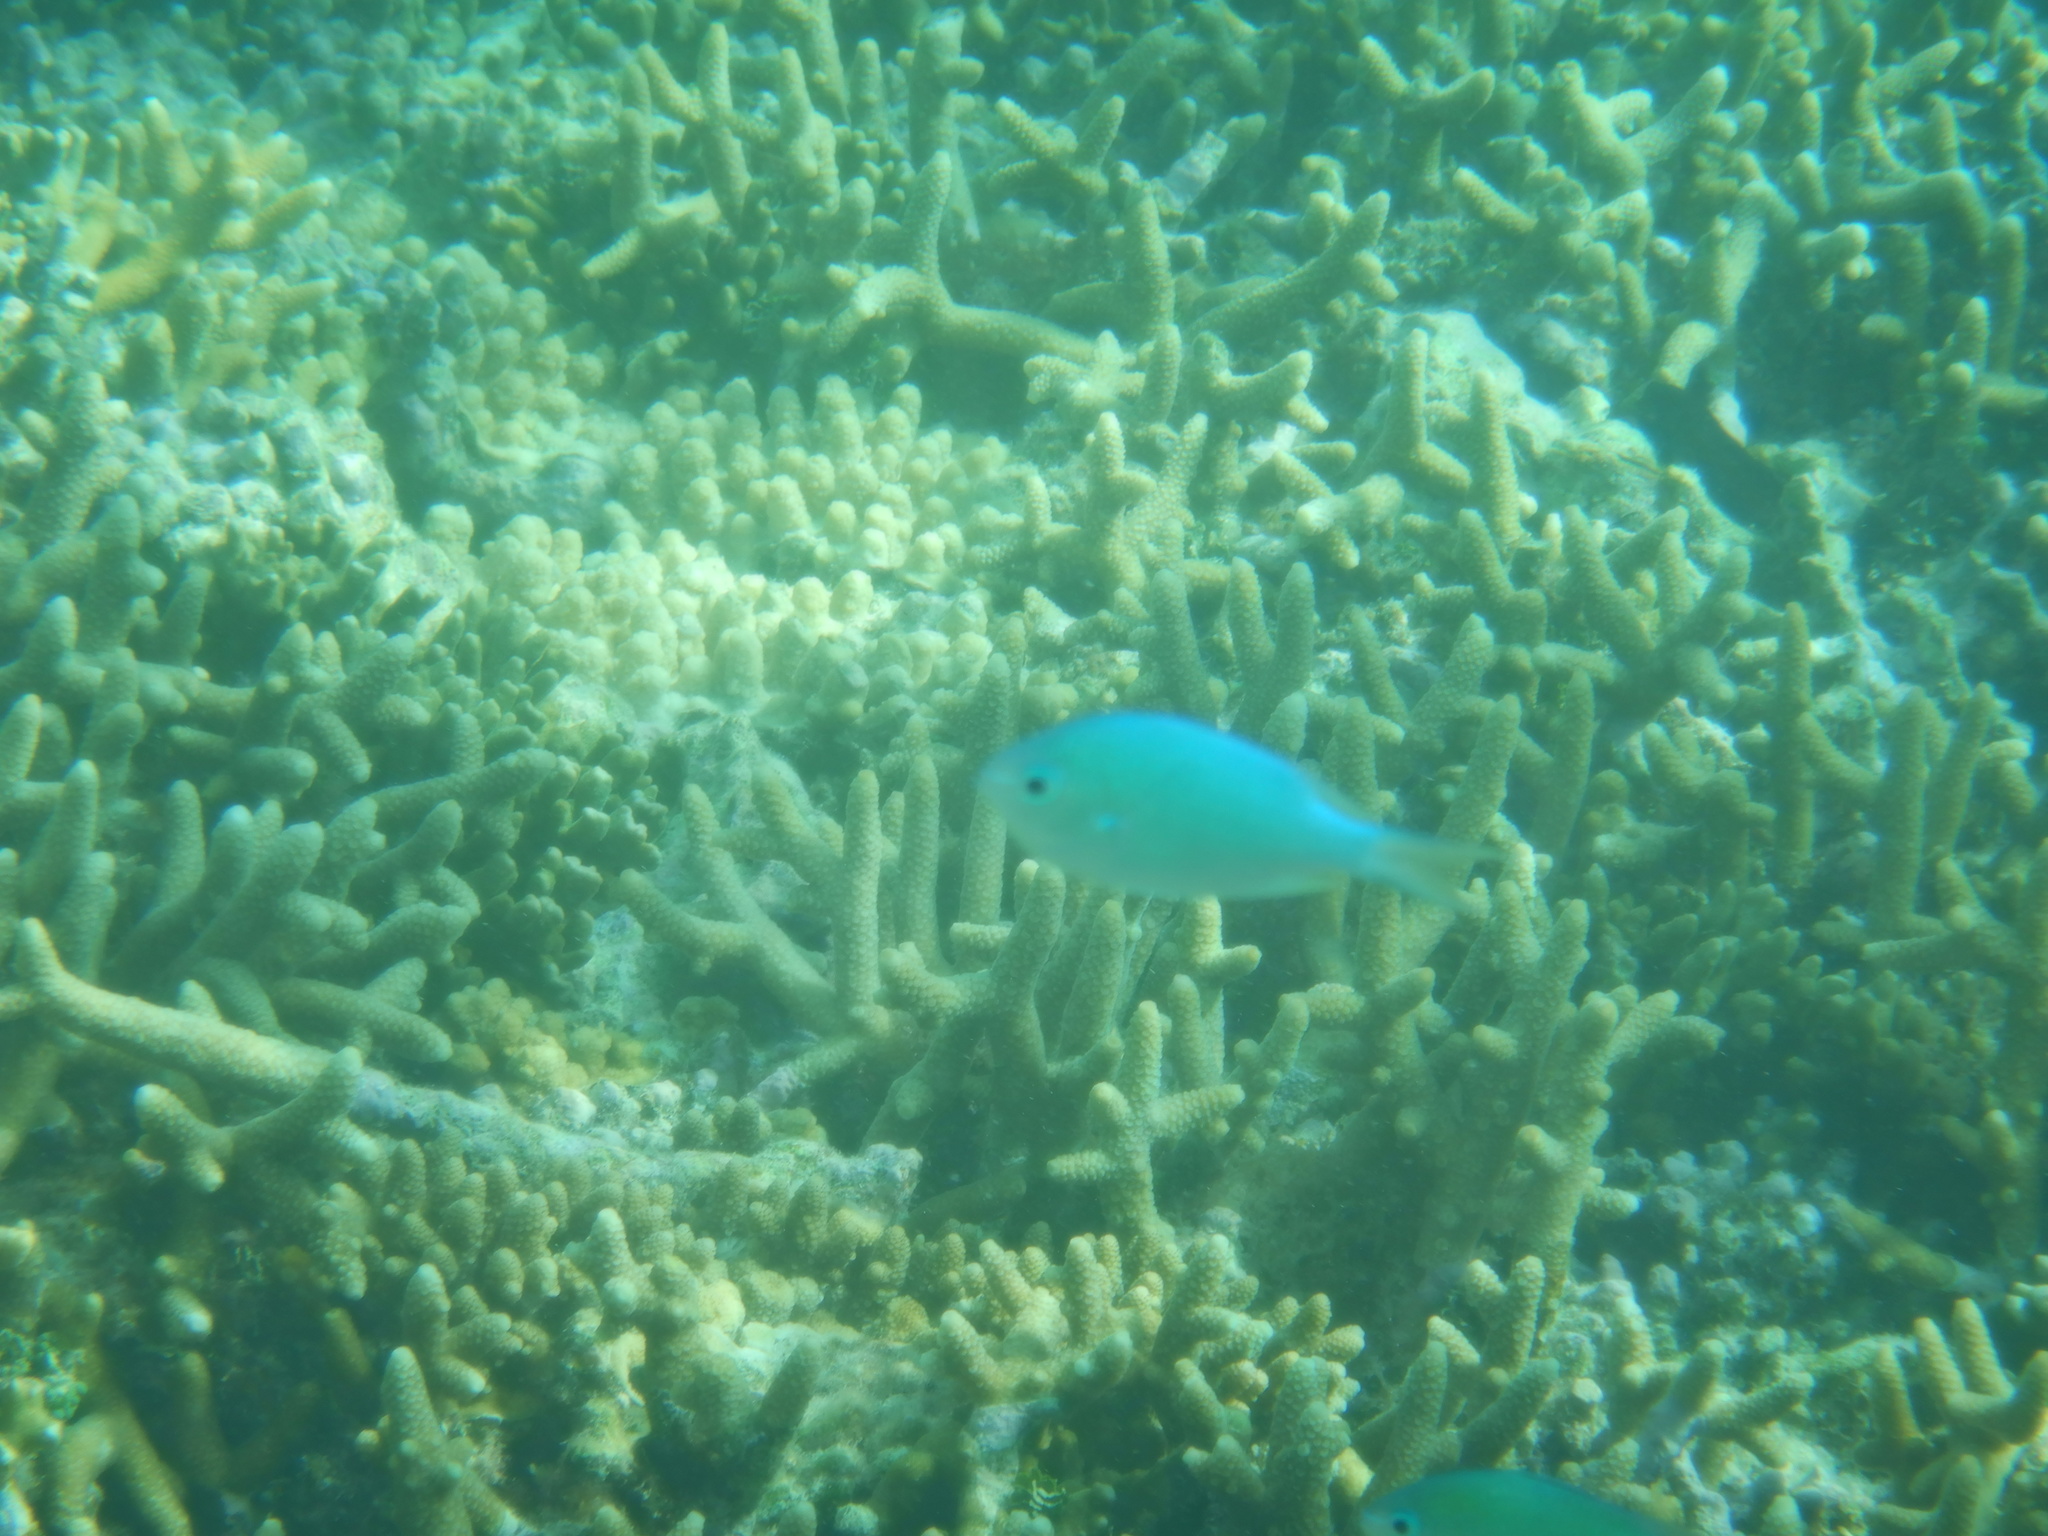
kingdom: Animalia
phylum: Chordata
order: Perciformes
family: Pomacentridae
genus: Chromis
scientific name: Chromis viridis
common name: Blue-green chromis
